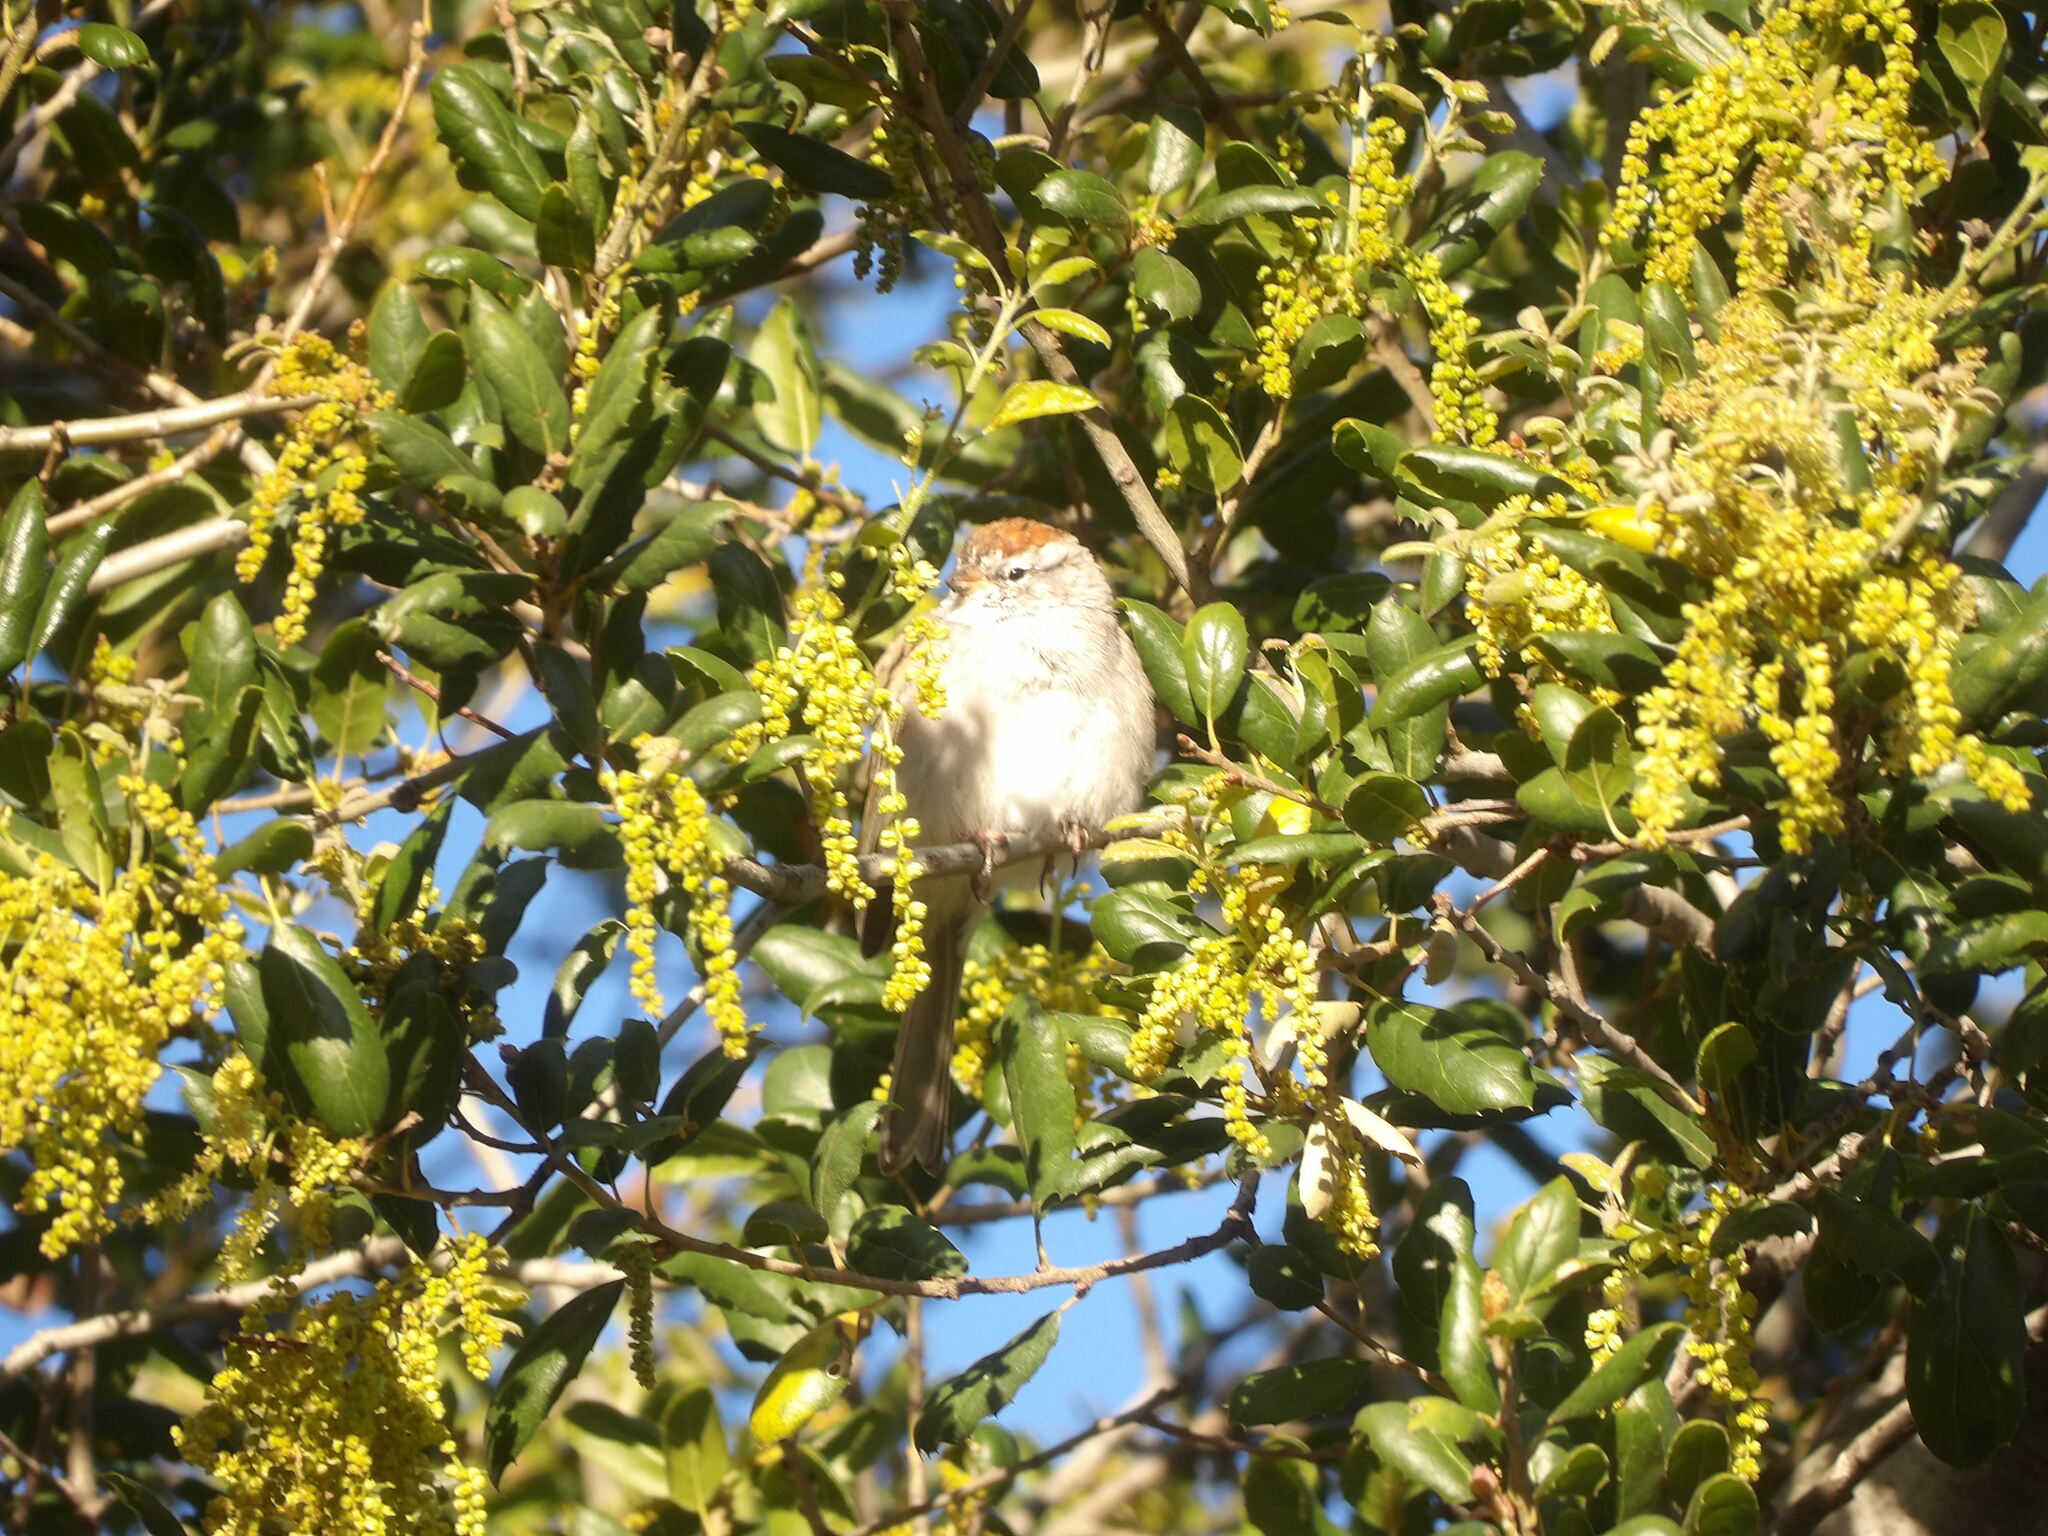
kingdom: Animalia
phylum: Chordata
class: Aves
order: Passeriformes
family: Passerellidae
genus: Spizella
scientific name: Spizella passerina
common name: Chipping sparrow
